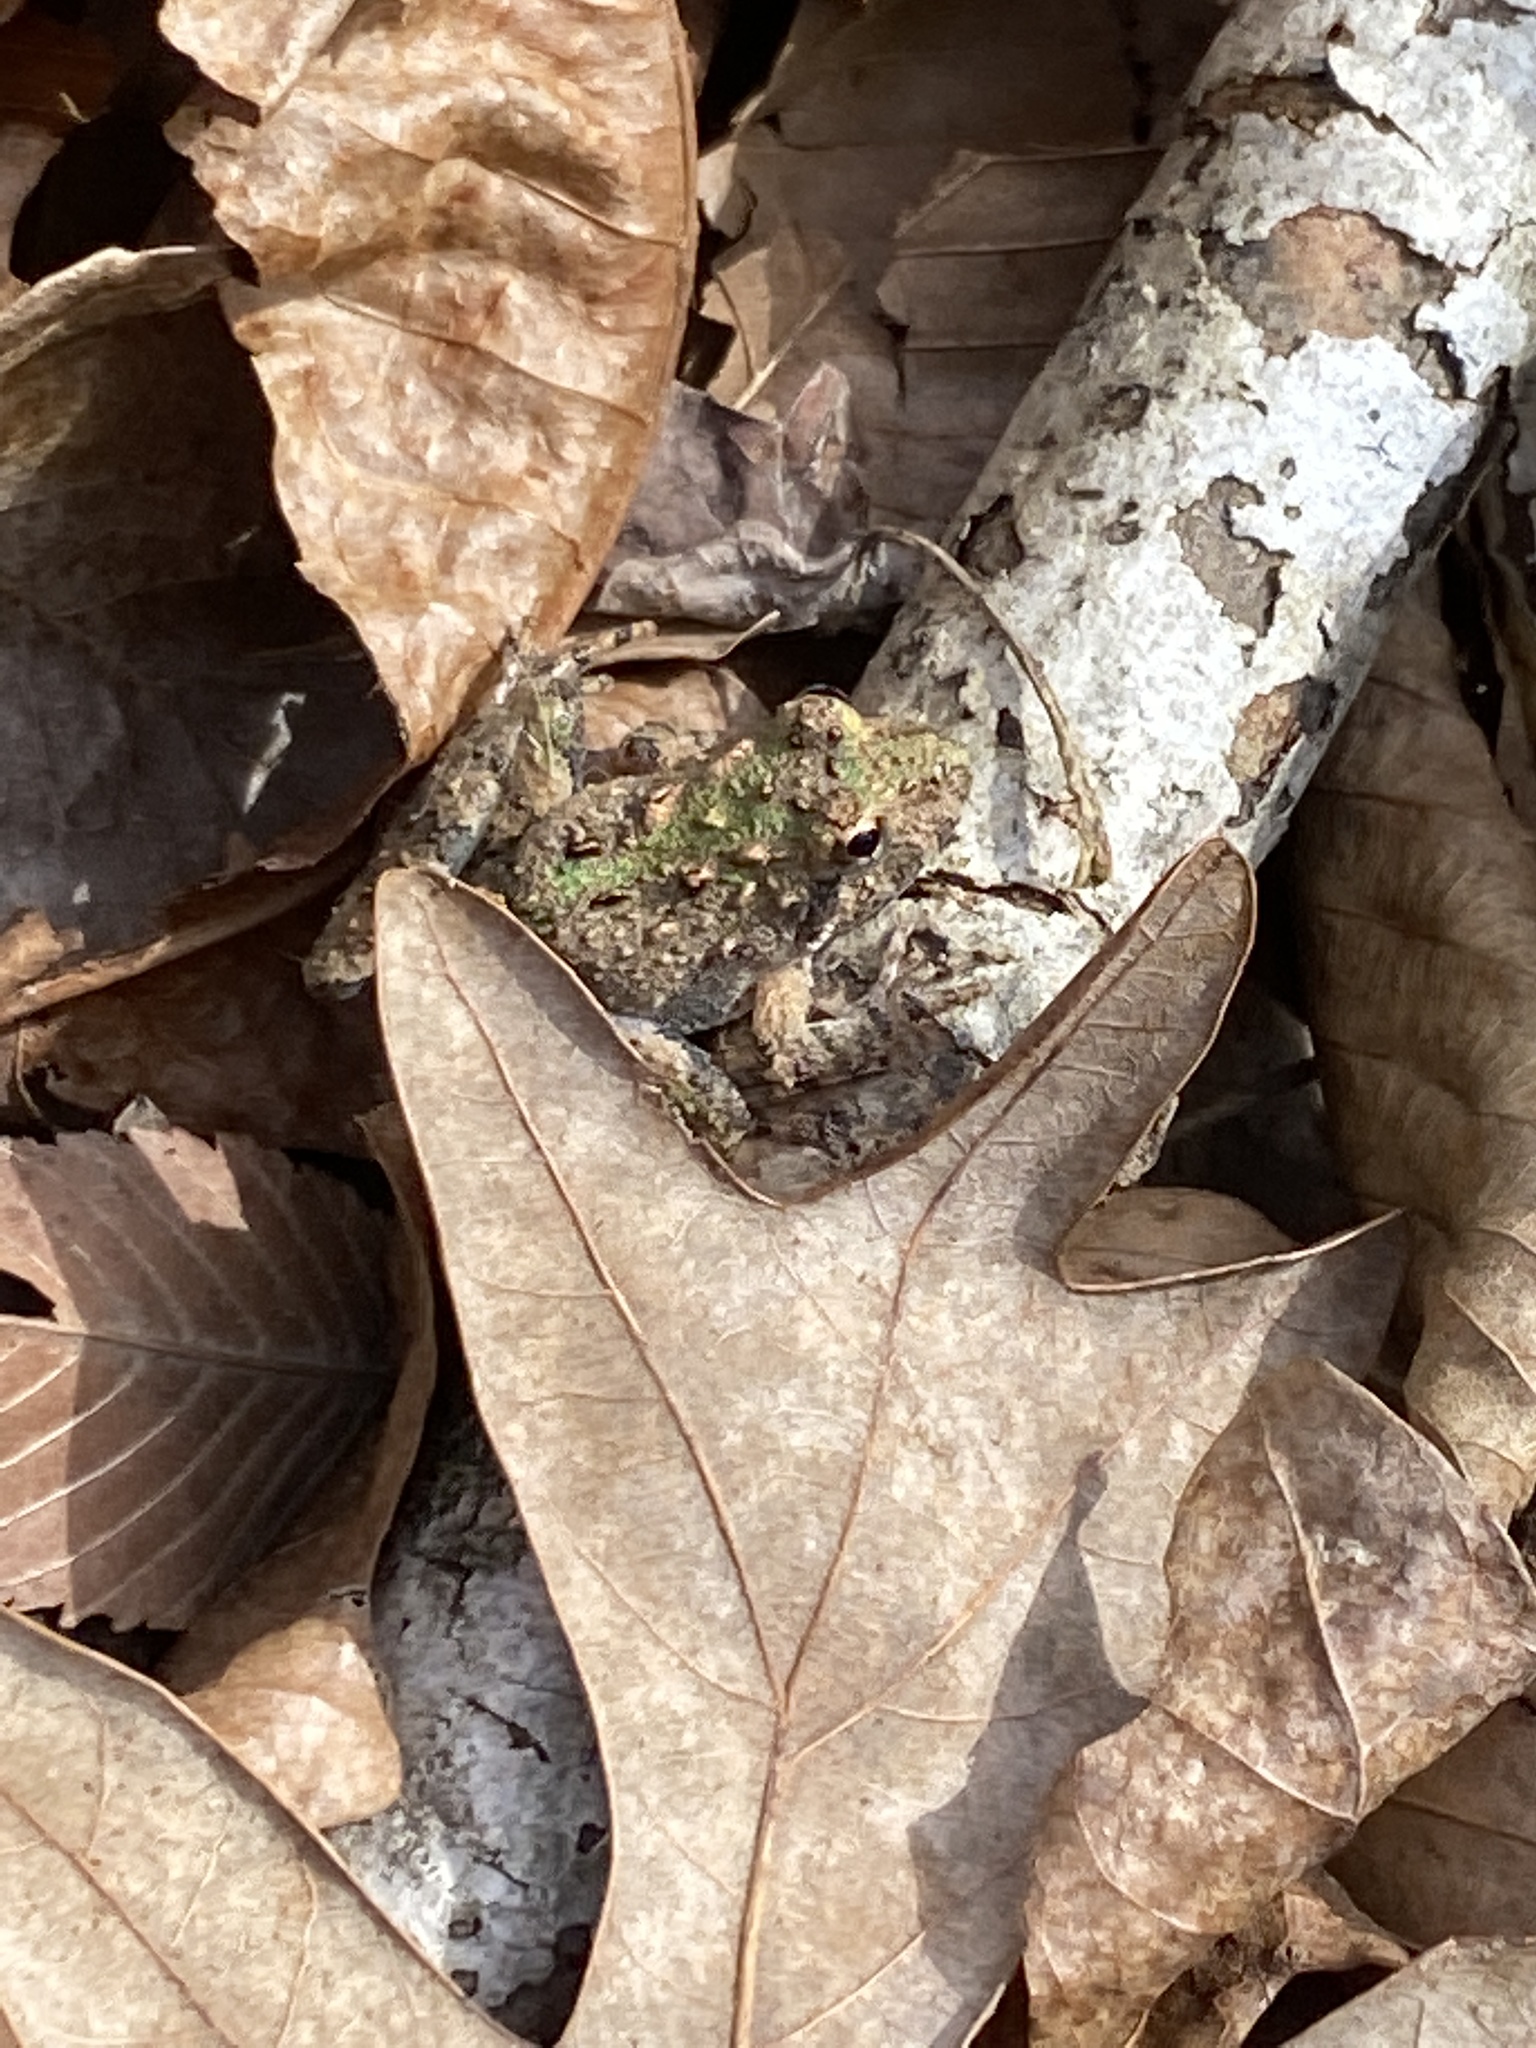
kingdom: Animalia
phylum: Chordata
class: Amphibia
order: Anura
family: Hylidae
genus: Acris
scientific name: Acris crepitans
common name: Northern cricket frog
